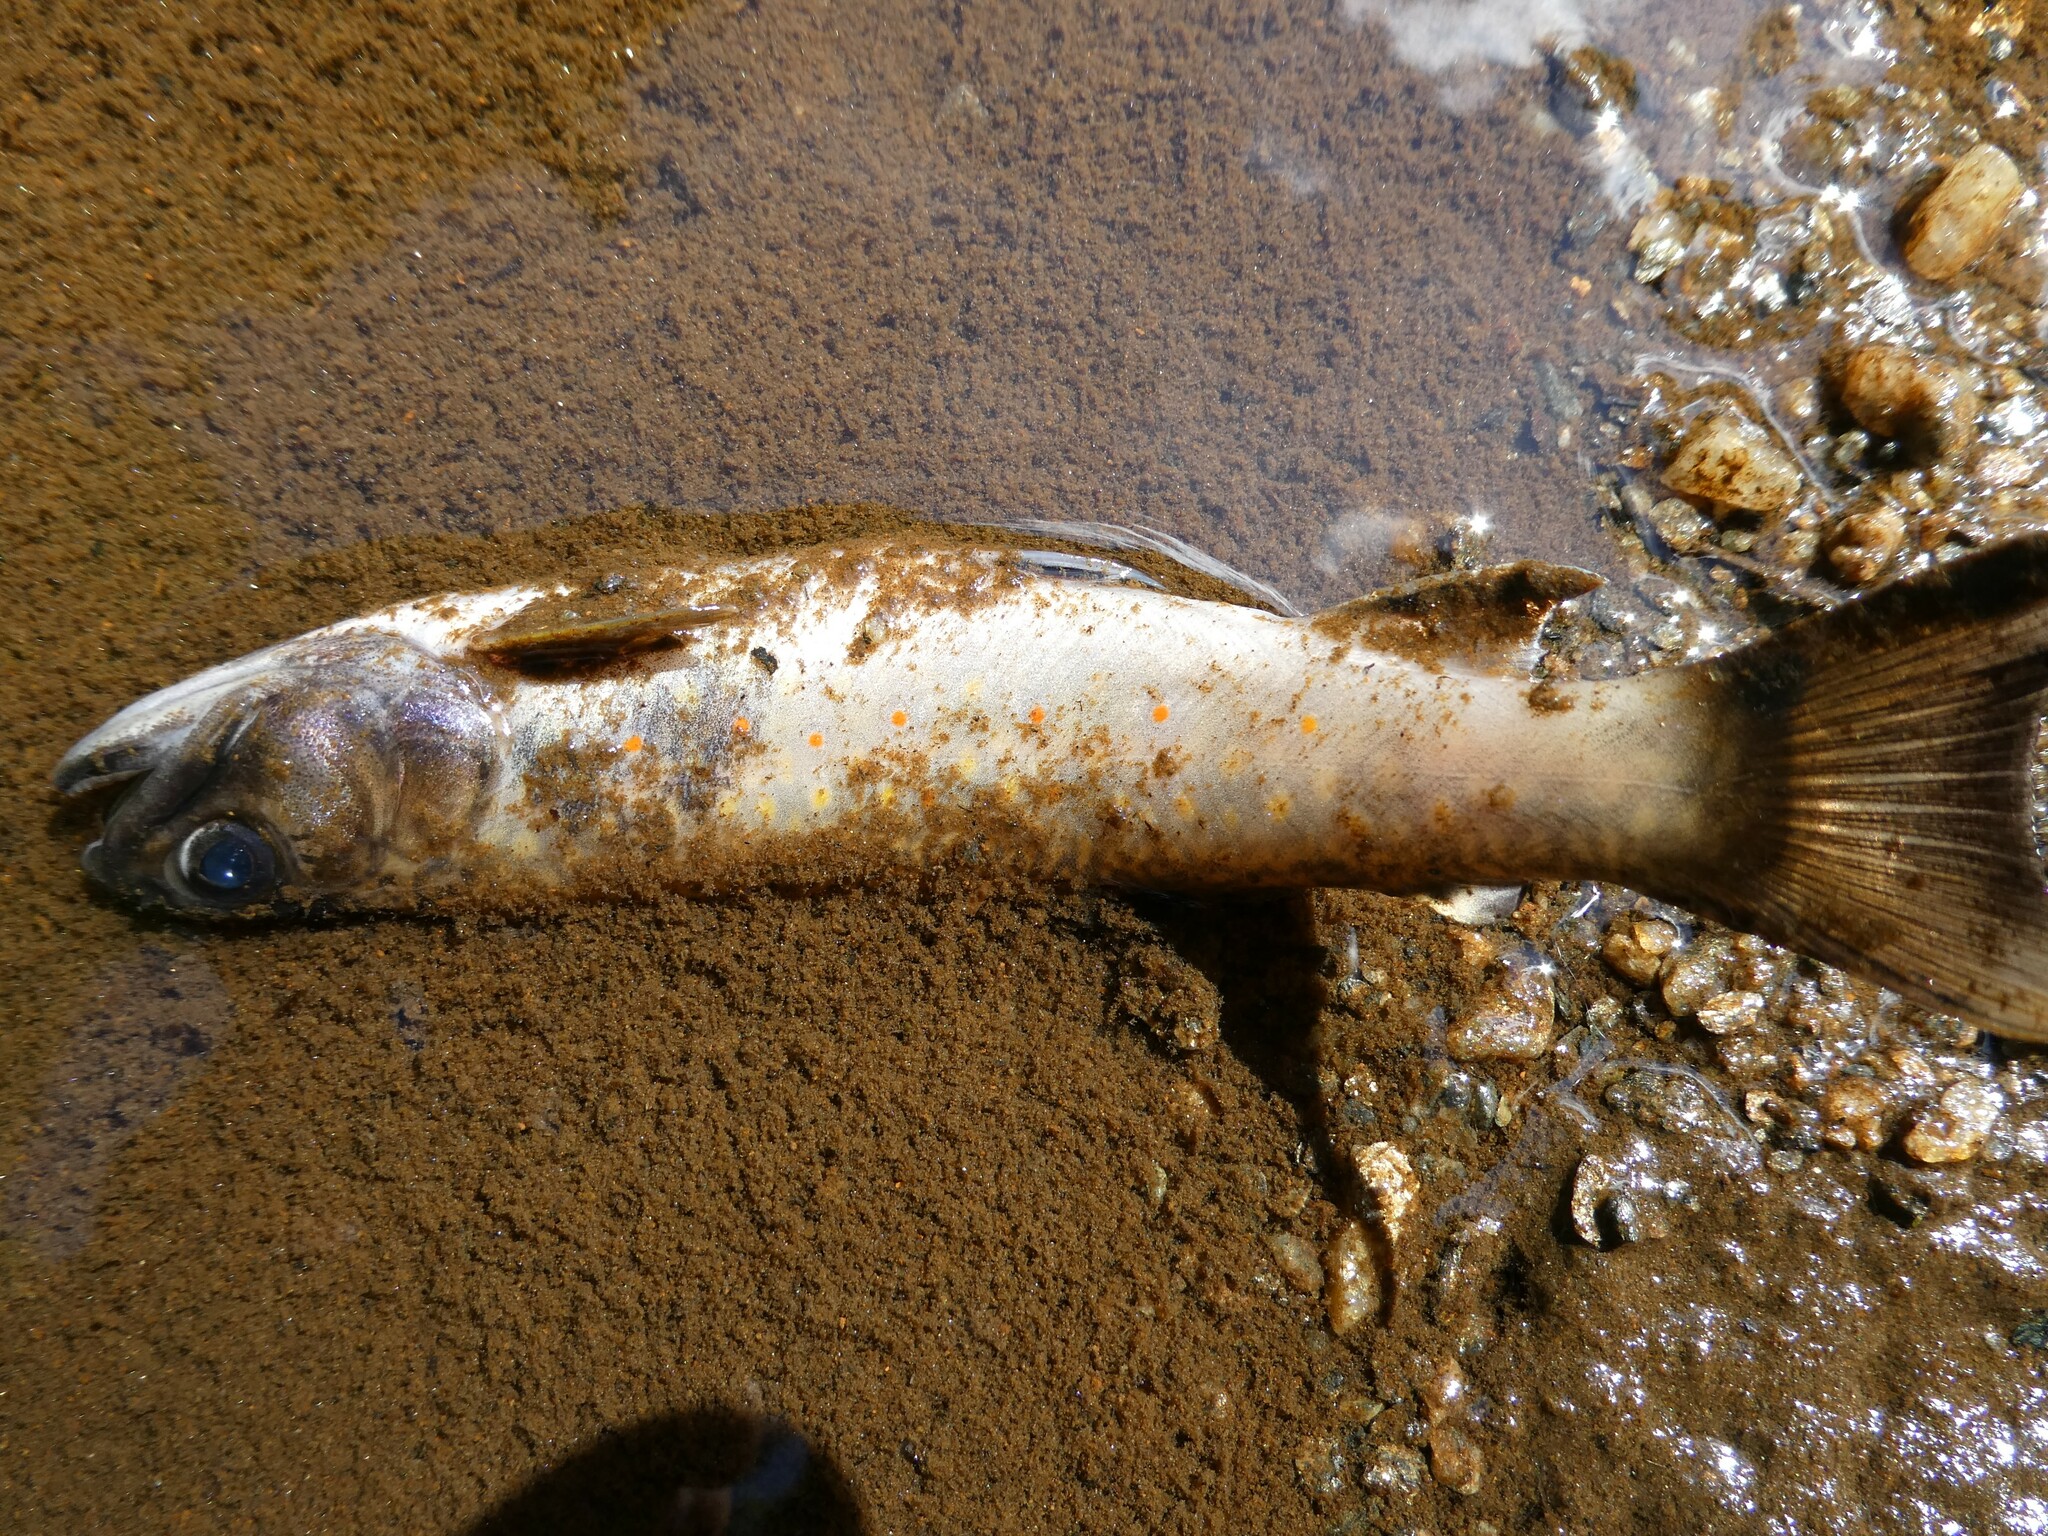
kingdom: Animalia
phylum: Chordata
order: Salmoniformes
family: Salmonidae
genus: Salvelinus
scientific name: Salvelinus fontinalis
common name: Brook trout
